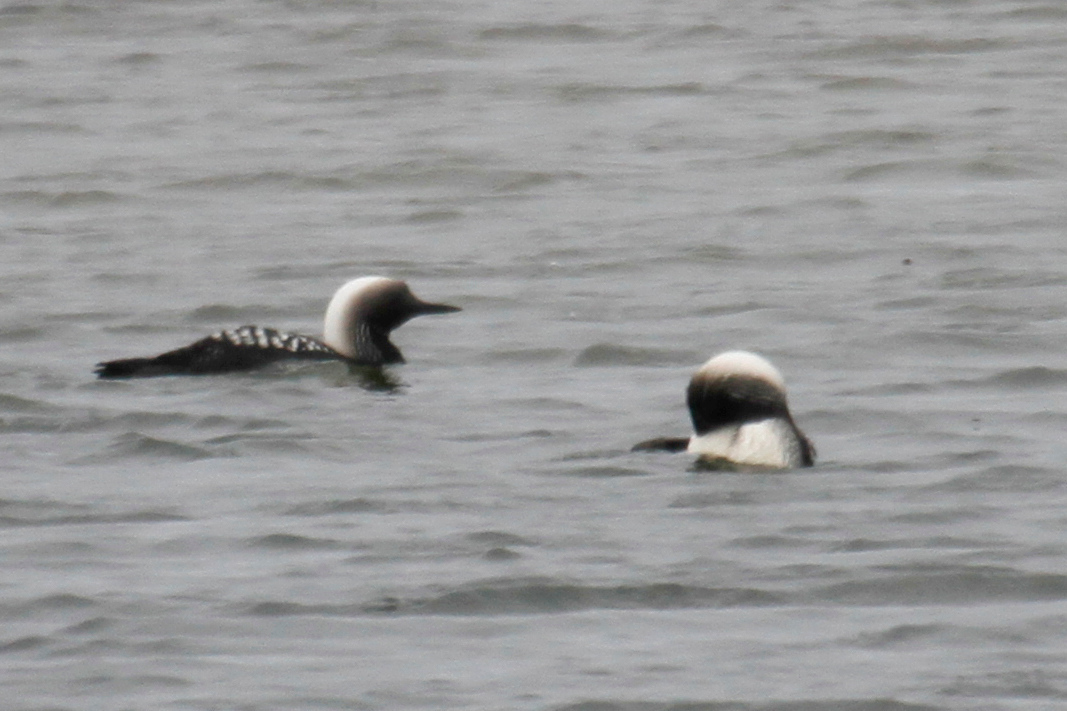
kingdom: Animalia
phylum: Chordata
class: Aves
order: Gaviiformes
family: Gaviidae
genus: Gavia
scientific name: Gavia pacifica
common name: Pacific loon
